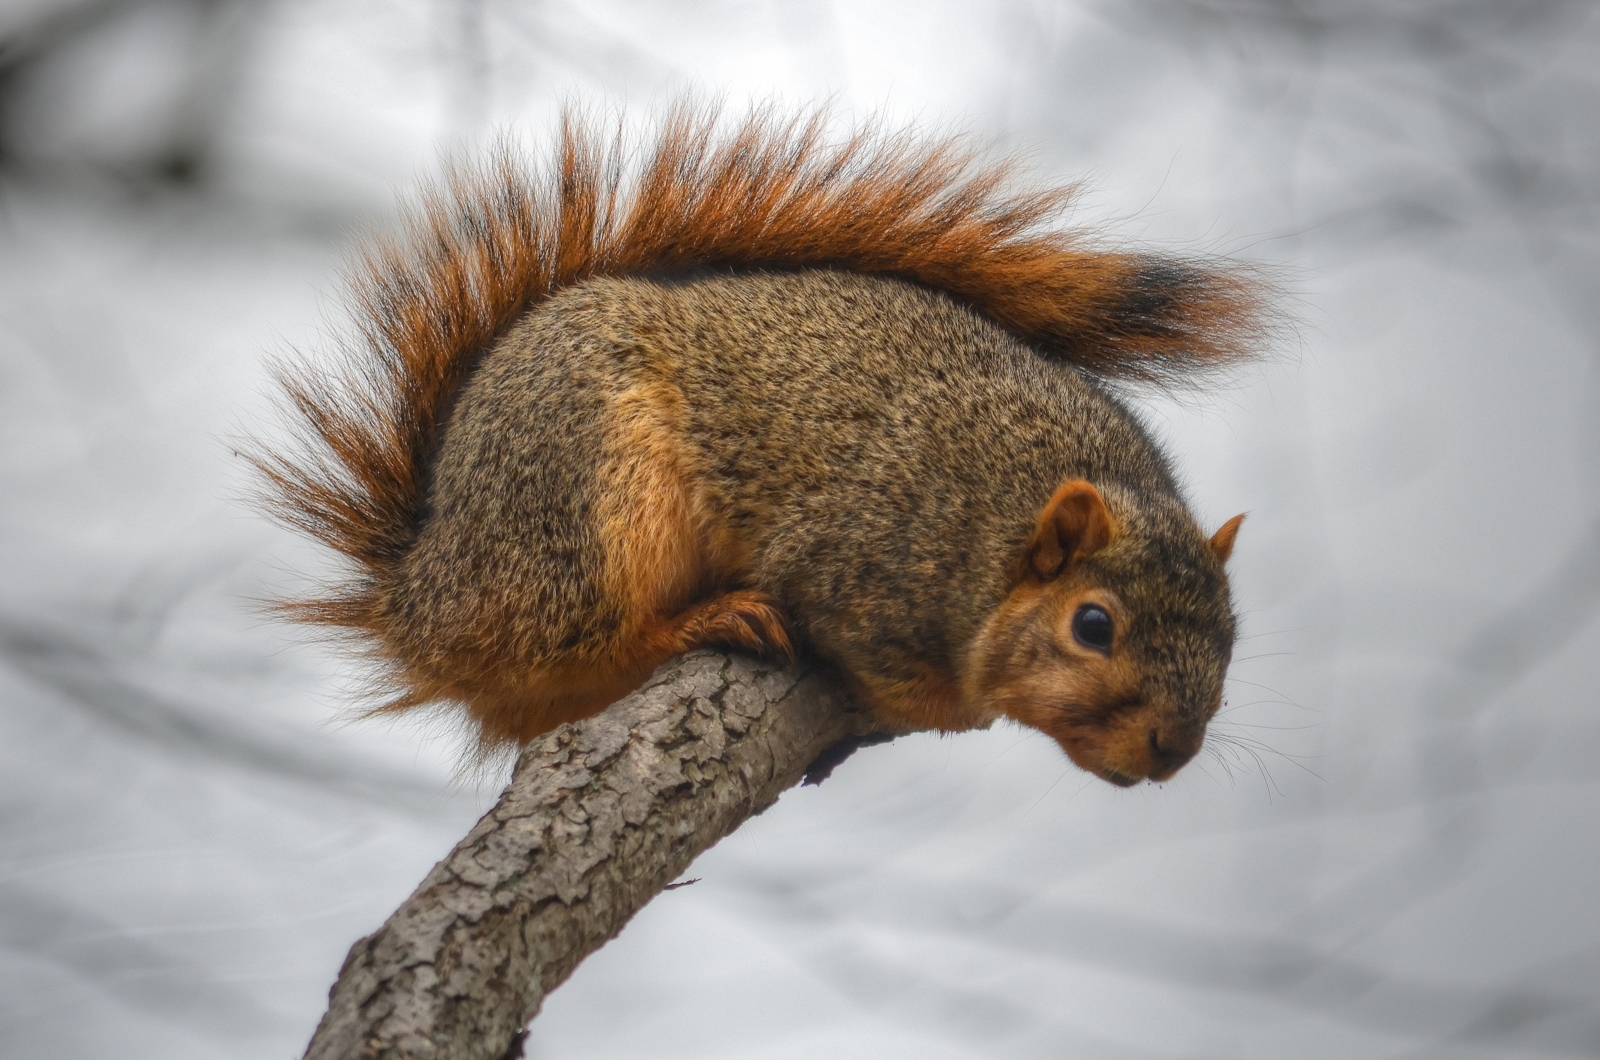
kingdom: Animalia
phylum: Chordata
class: Mammalia
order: Rodentia
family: Sciuridae
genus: Sciurus
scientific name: Sciurus niger
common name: Fox squirrel
